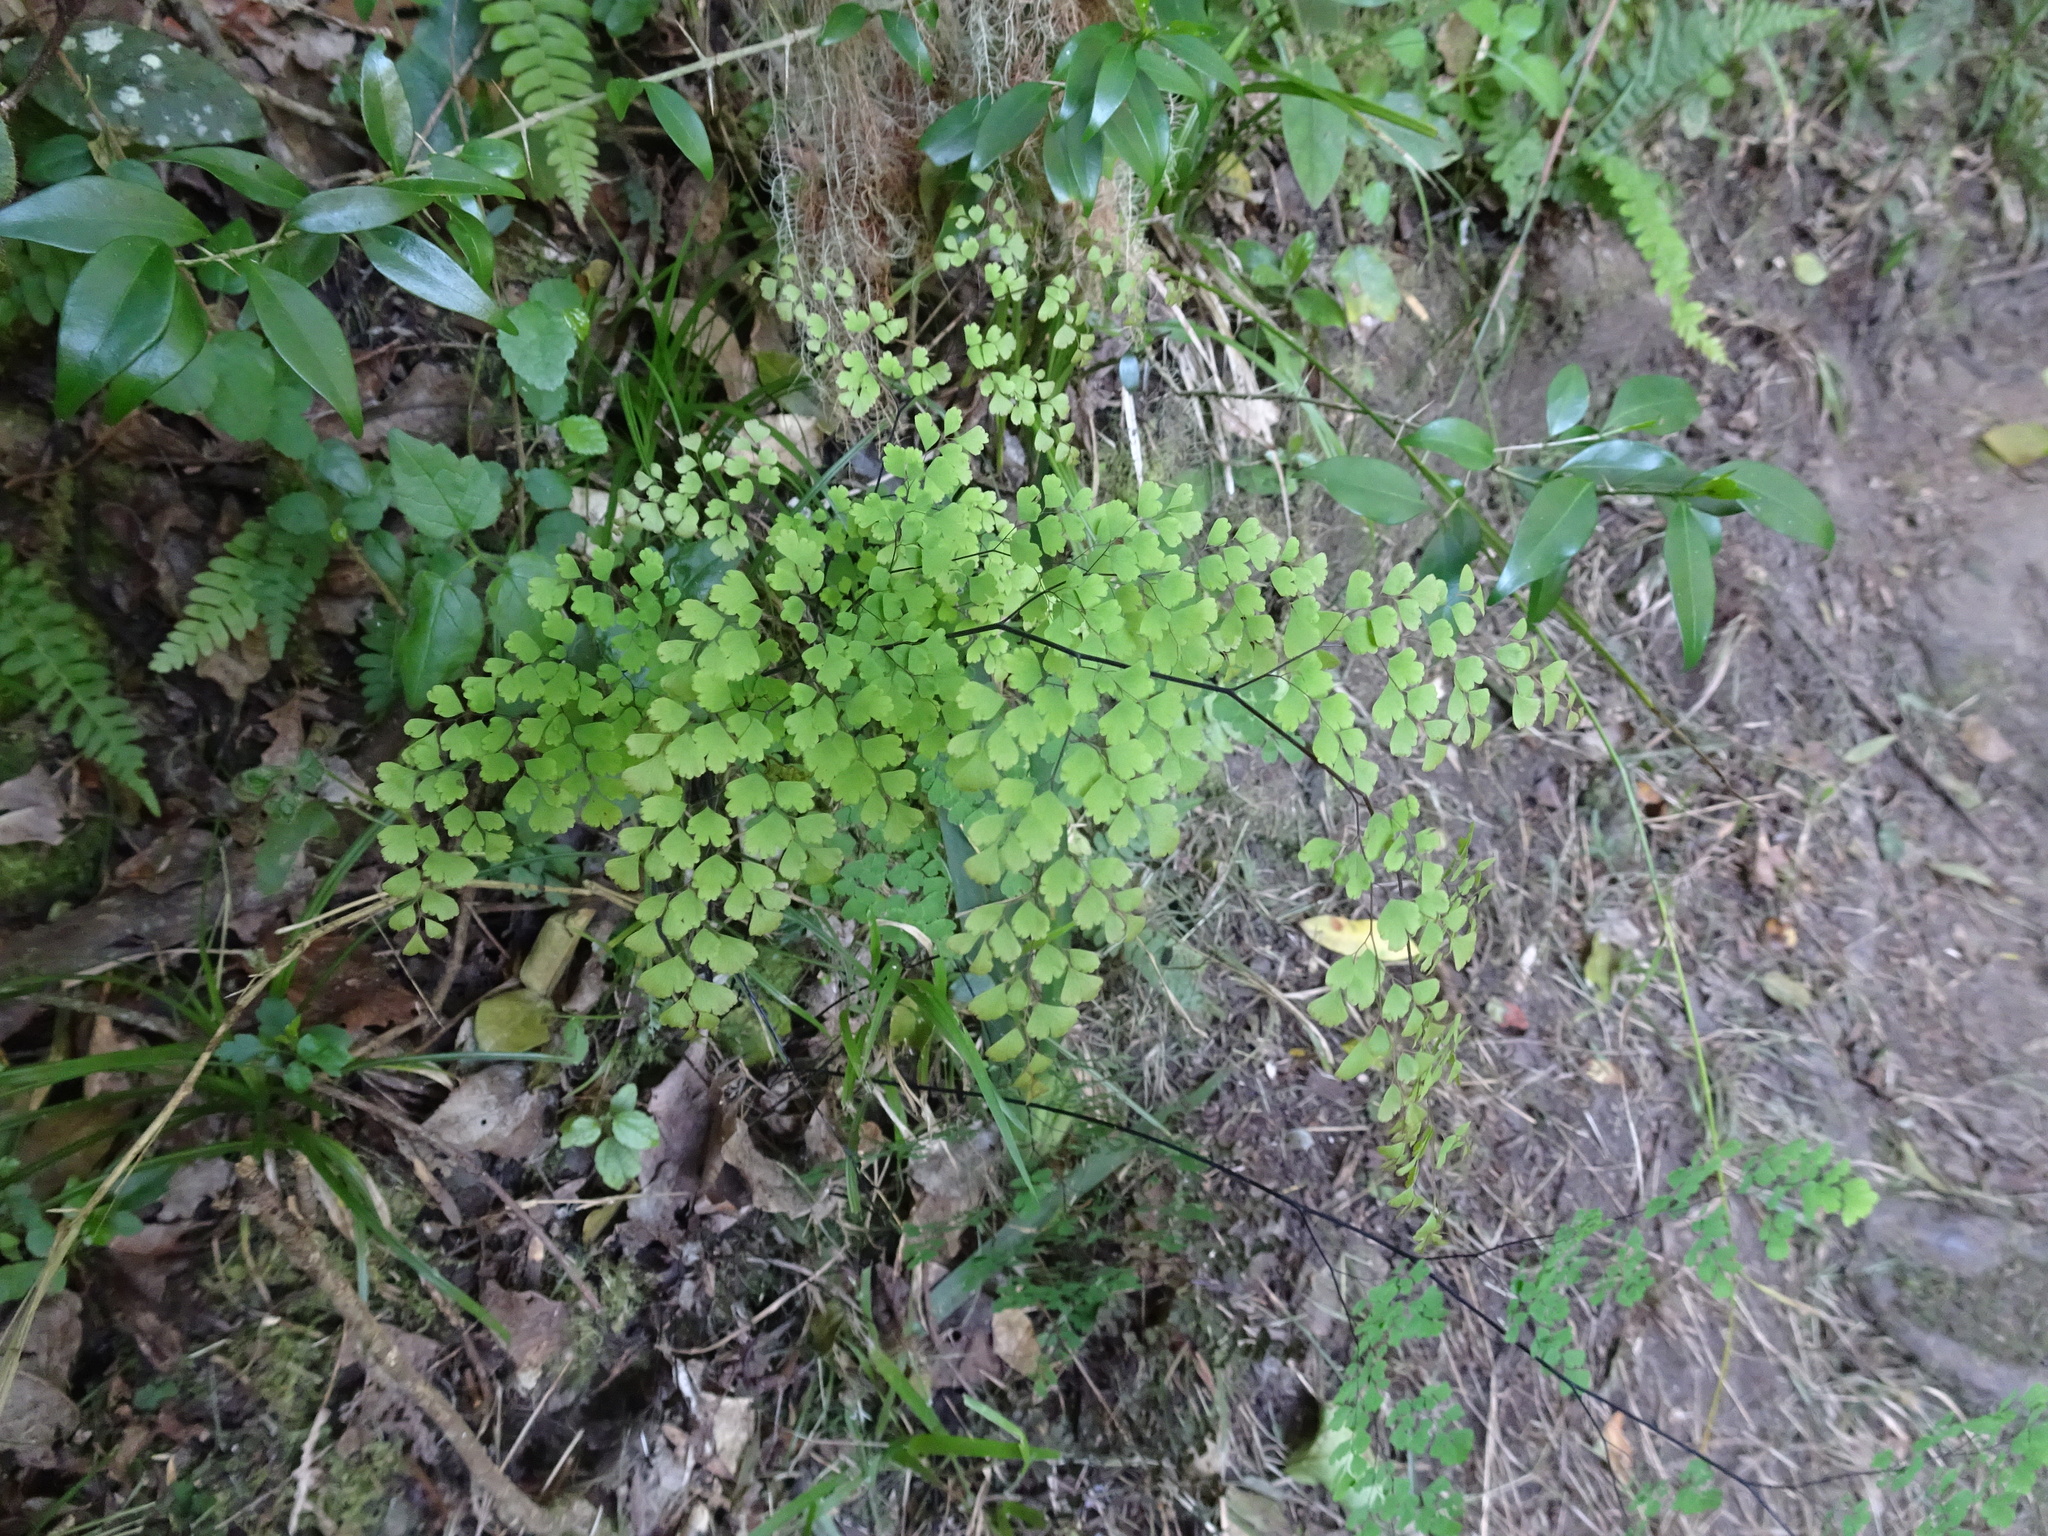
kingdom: Plantae
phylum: Tracheophyta
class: Polypodiopsida
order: Polypodiales
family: Pteridaceae
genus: Adiantum
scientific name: Adiantum raddianum
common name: Delta maidenhair fern
